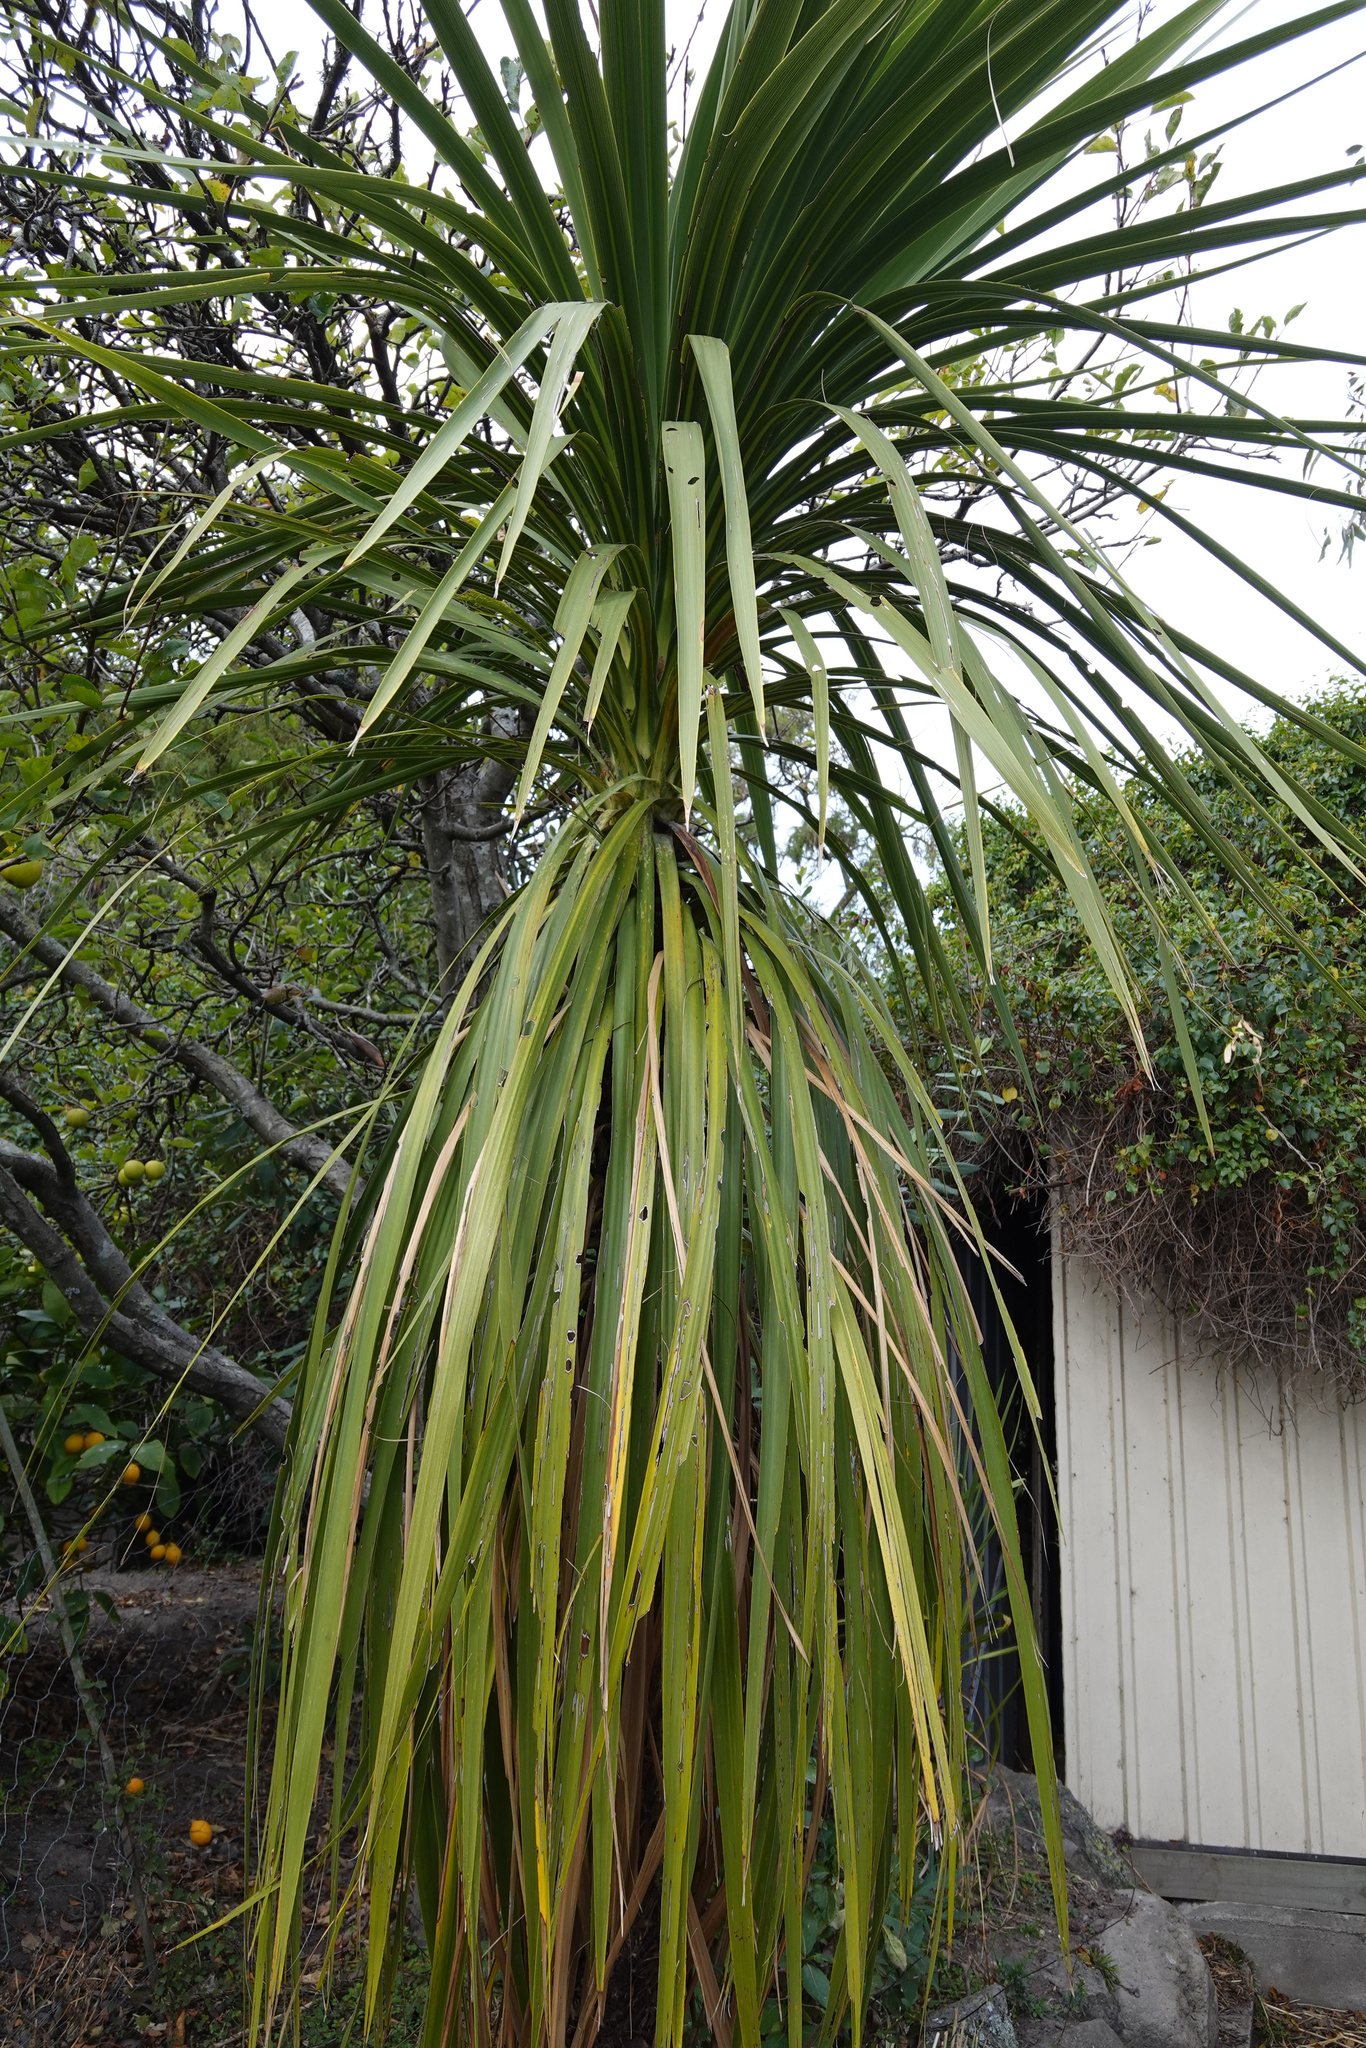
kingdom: Plantae
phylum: Tracheophyta
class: Liliopsida
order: Asparagales
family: Asparagaceae
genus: Cordyline
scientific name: Cordyline australis
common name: Cabbage-palm
